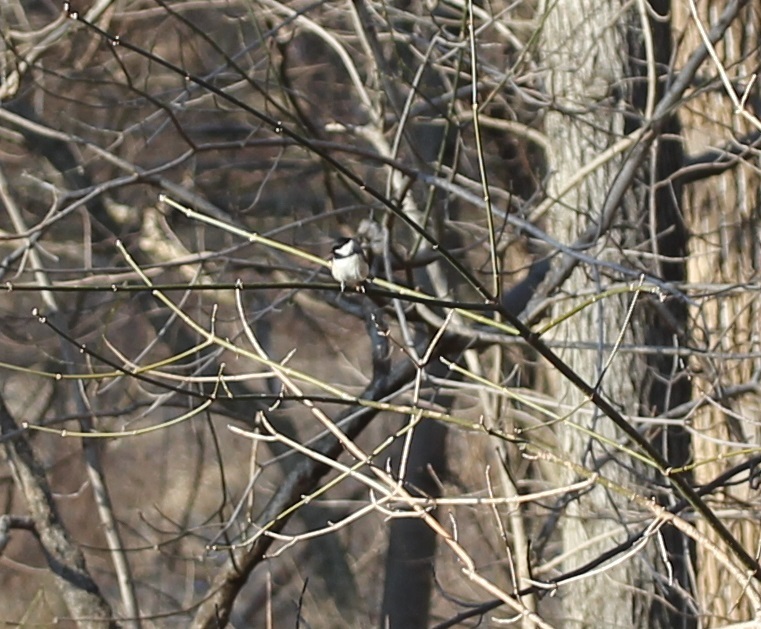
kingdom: Animalia
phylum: Chordata
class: Aves
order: Passeriformes
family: Paridae
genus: Poecile
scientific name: Poecile carolinensis
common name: Carolina chickadee
